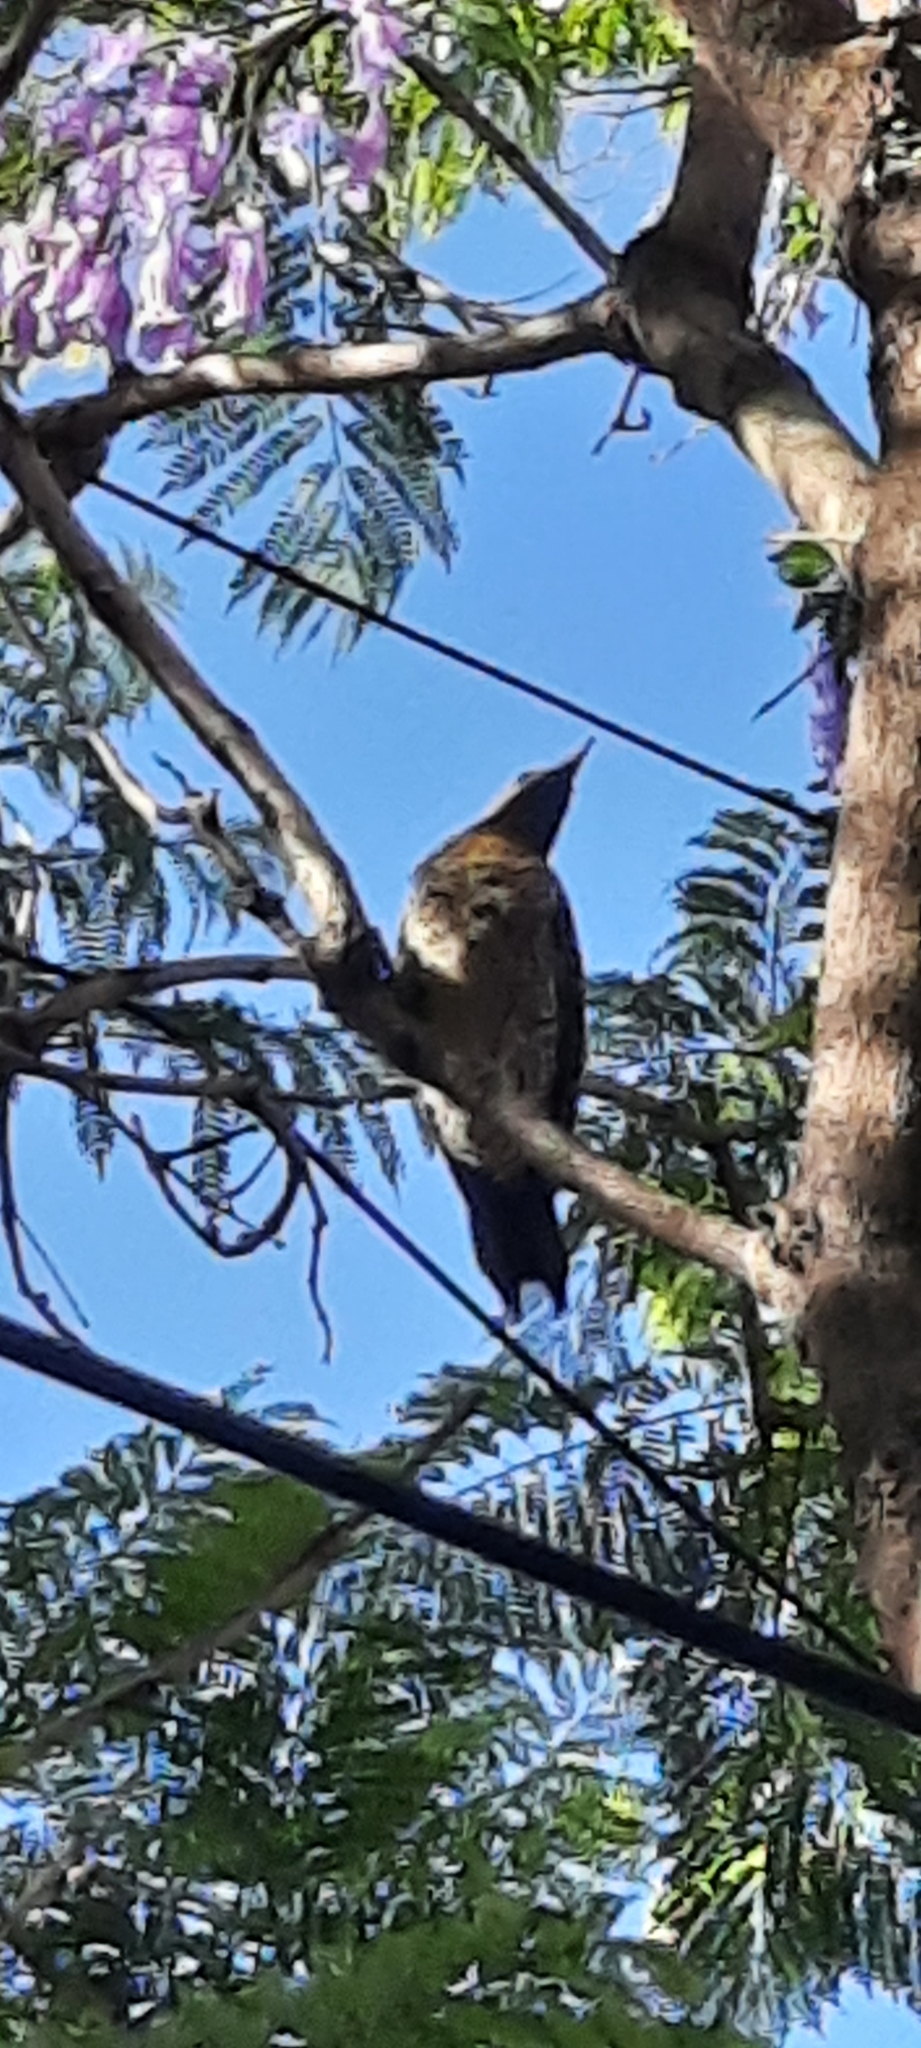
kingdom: Animalia
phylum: Chordata
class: Aves
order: Piciformes
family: Picidae
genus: Colaptes
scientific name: Colaptes melanochloros
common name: Green-barred woodpecker
